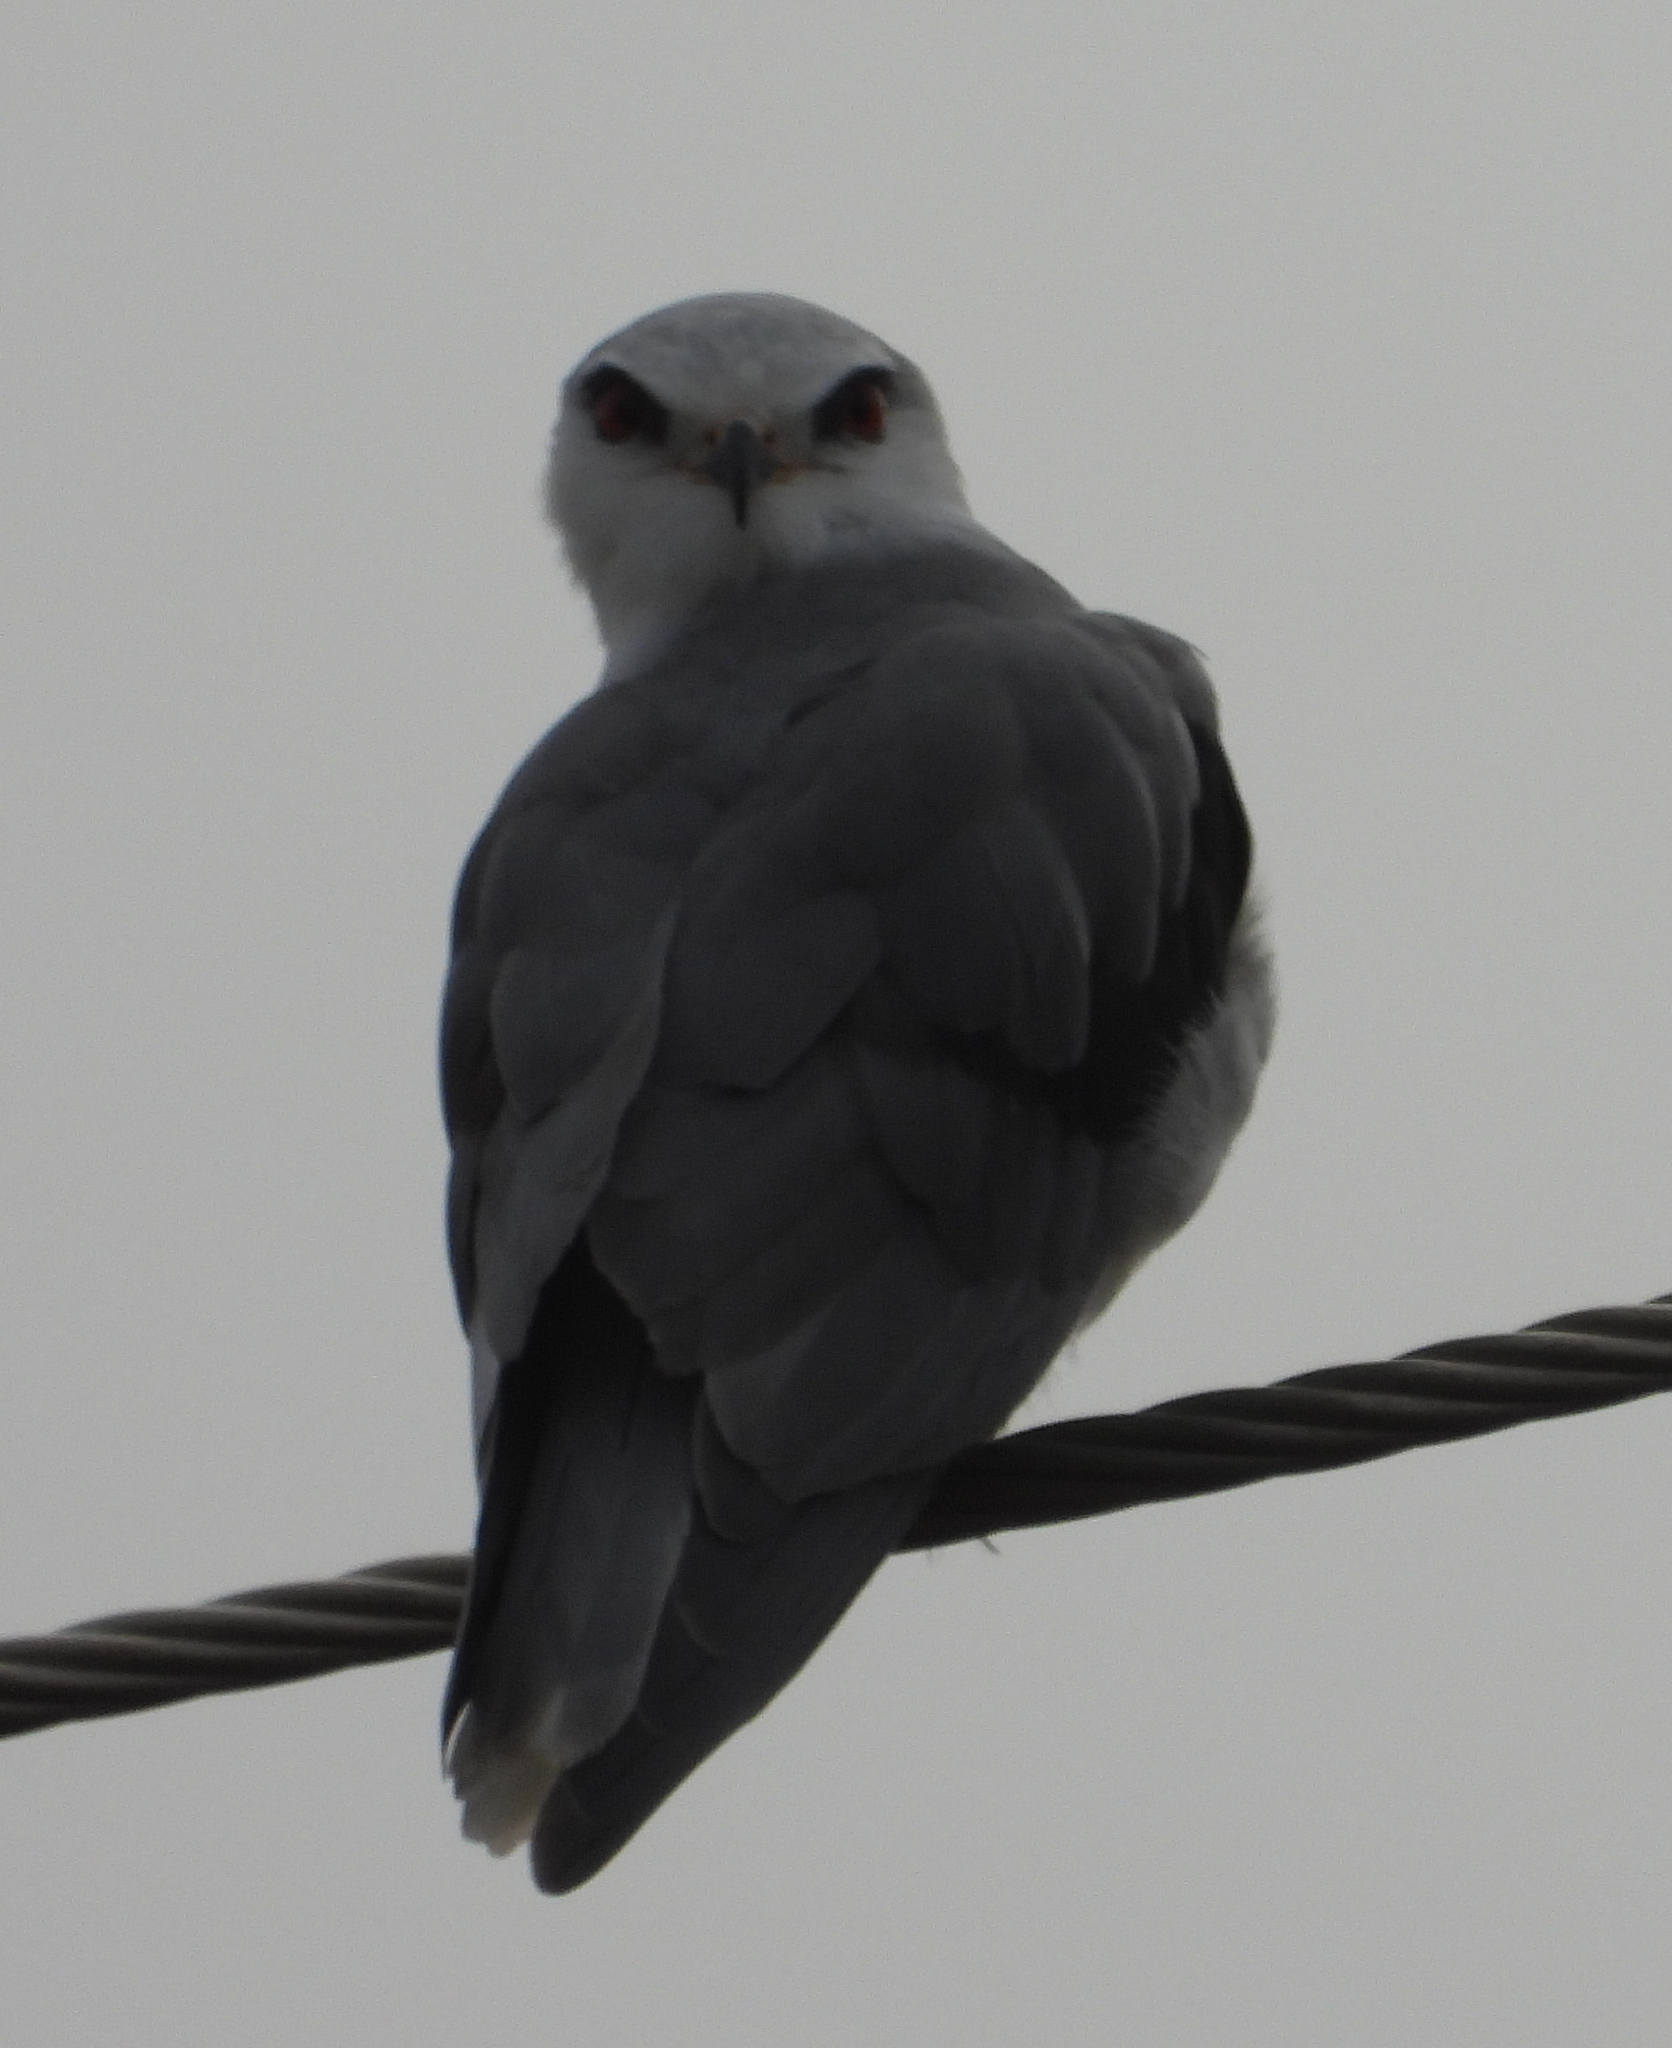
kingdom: Animalia
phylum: Chordata
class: Aves
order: Accipitriformes
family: Accipitridae
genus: Elanus
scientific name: Elanus caeruleus
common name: Black-winged kite
